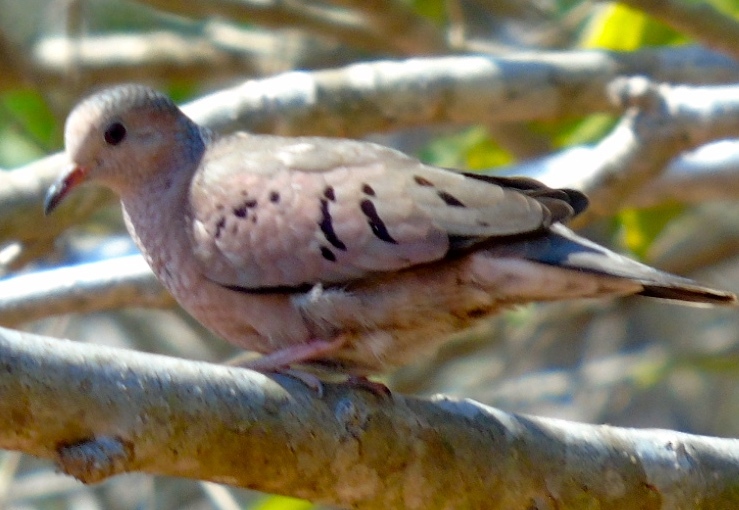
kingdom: Animalia
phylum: Chordata
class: Aves
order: Columbiformes
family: Columbidae
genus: Columbina
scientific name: Columbina passerina
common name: Common ground-dove
